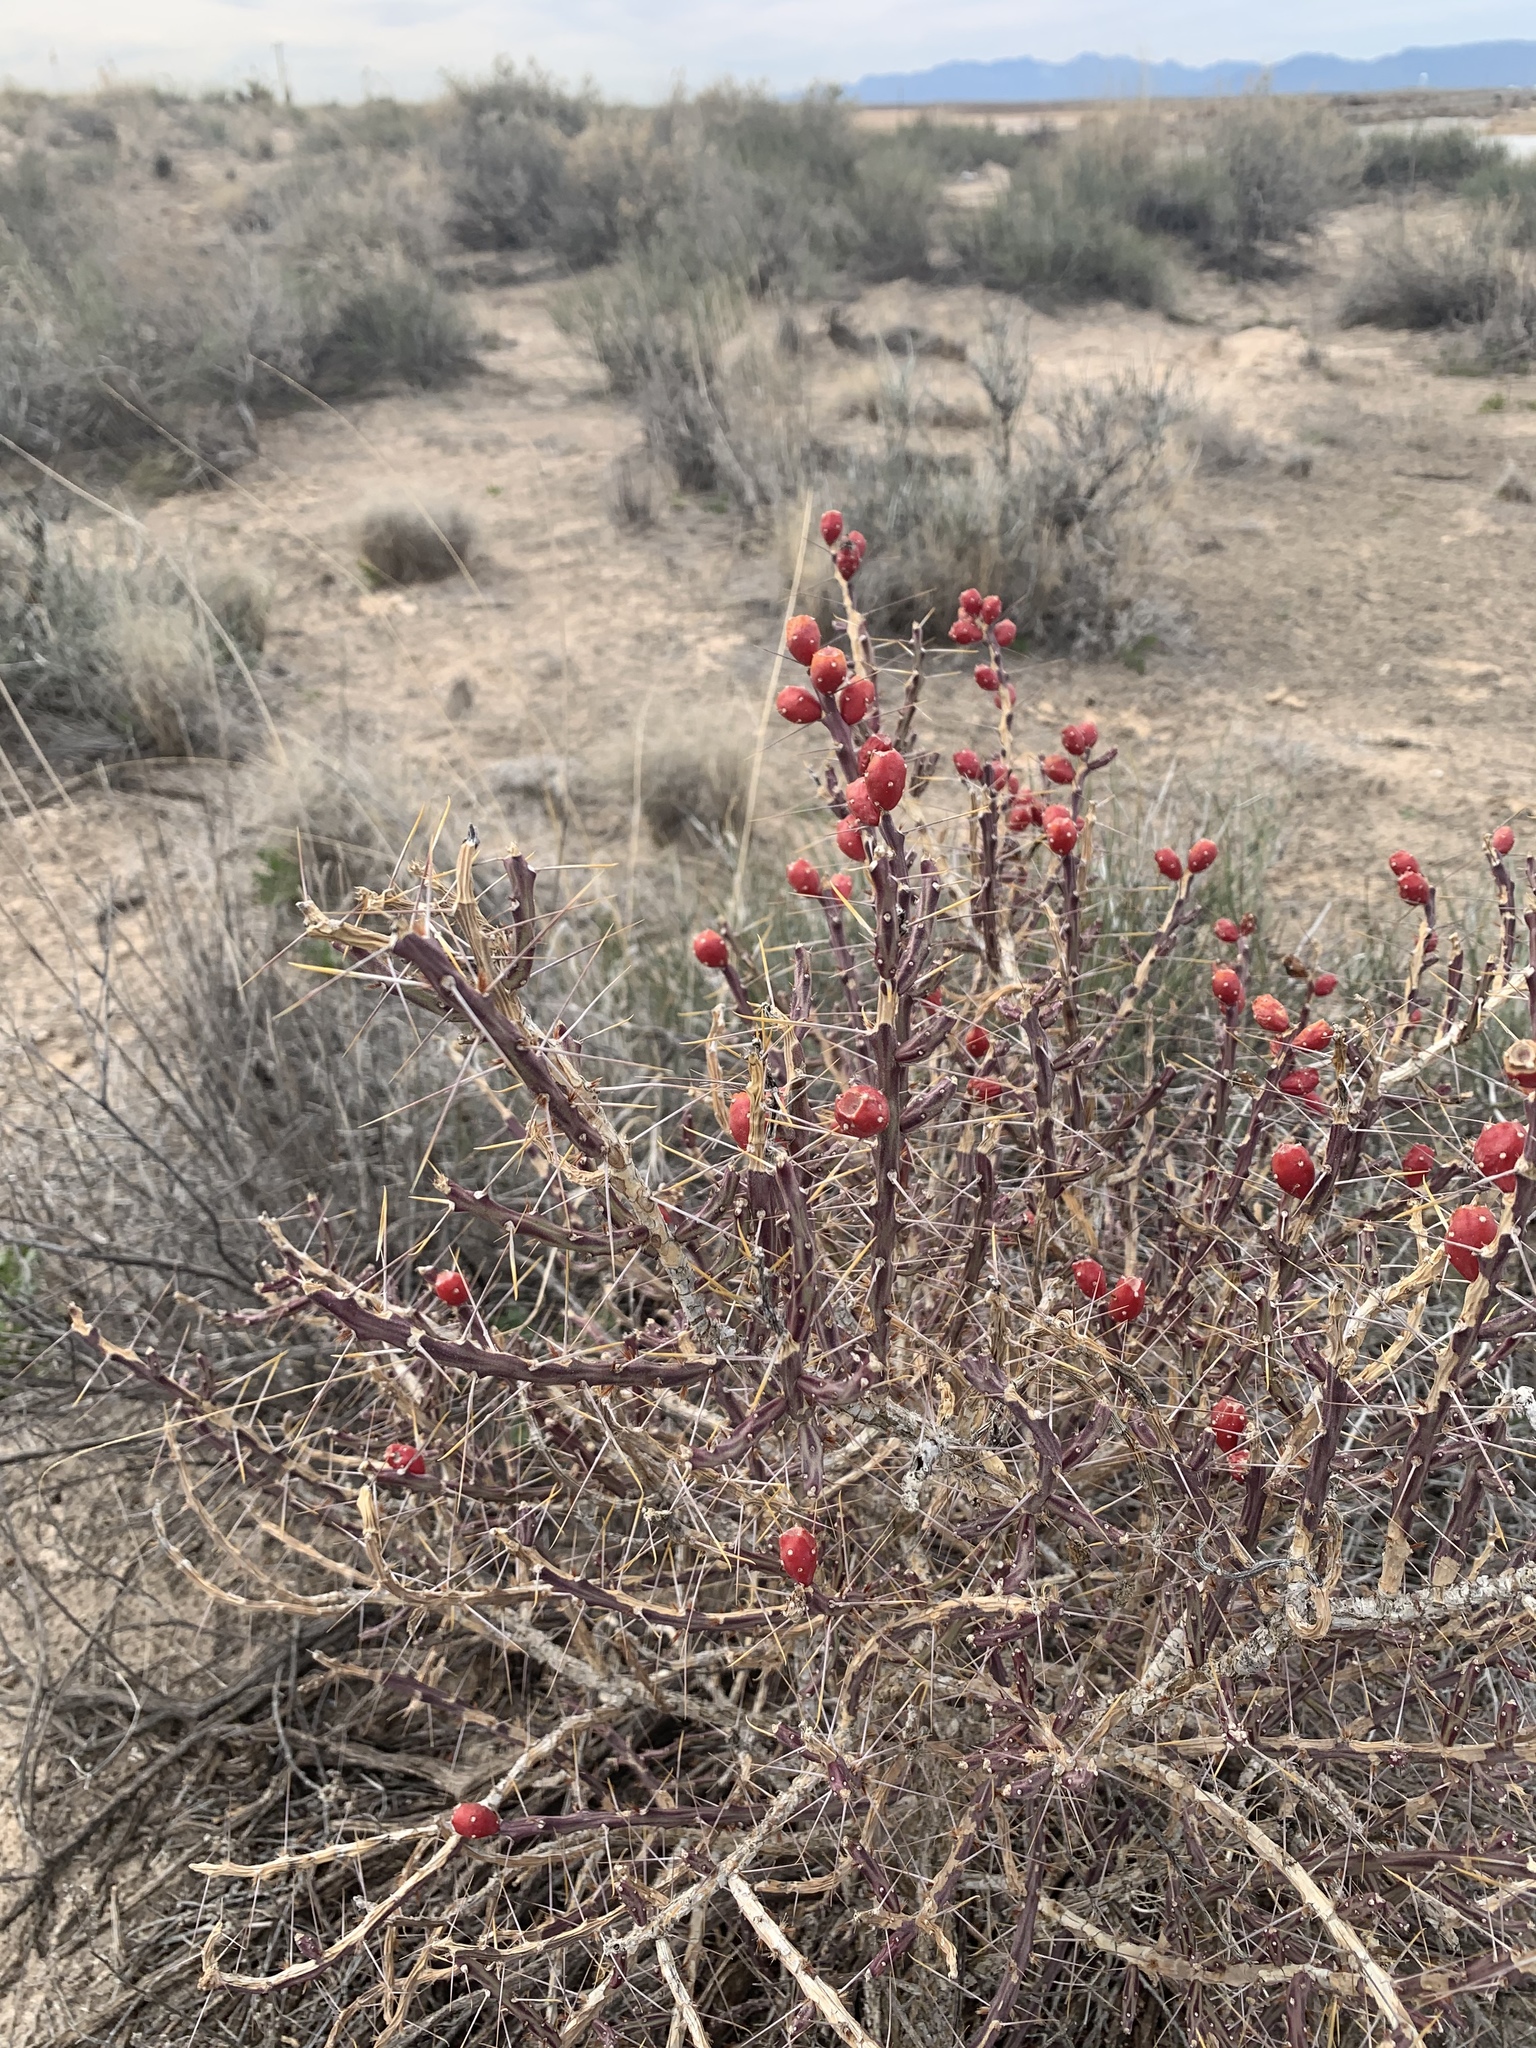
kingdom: Plantae
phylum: Tracheophyta
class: Magnoliopsida
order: Caryophyllales
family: Cactaceae
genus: Cylindropuntia
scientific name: Cylindropuntia leptocaulis
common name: Christmas cactus
